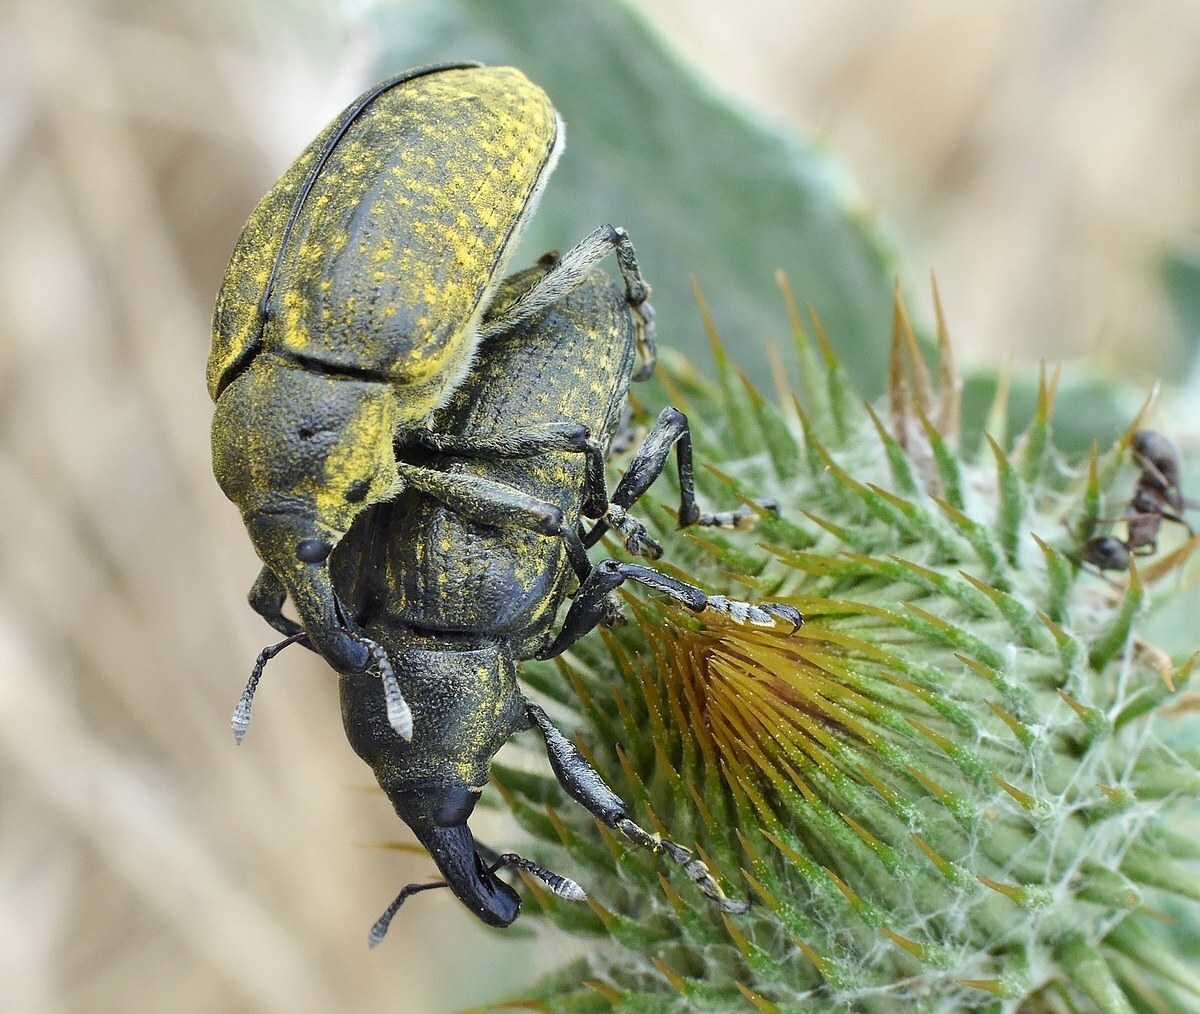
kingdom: Animalia
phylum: Arthropoda
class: Insecta
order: Coleoptera
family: Curculionidae
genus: Larinus
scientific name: Larinus latus
